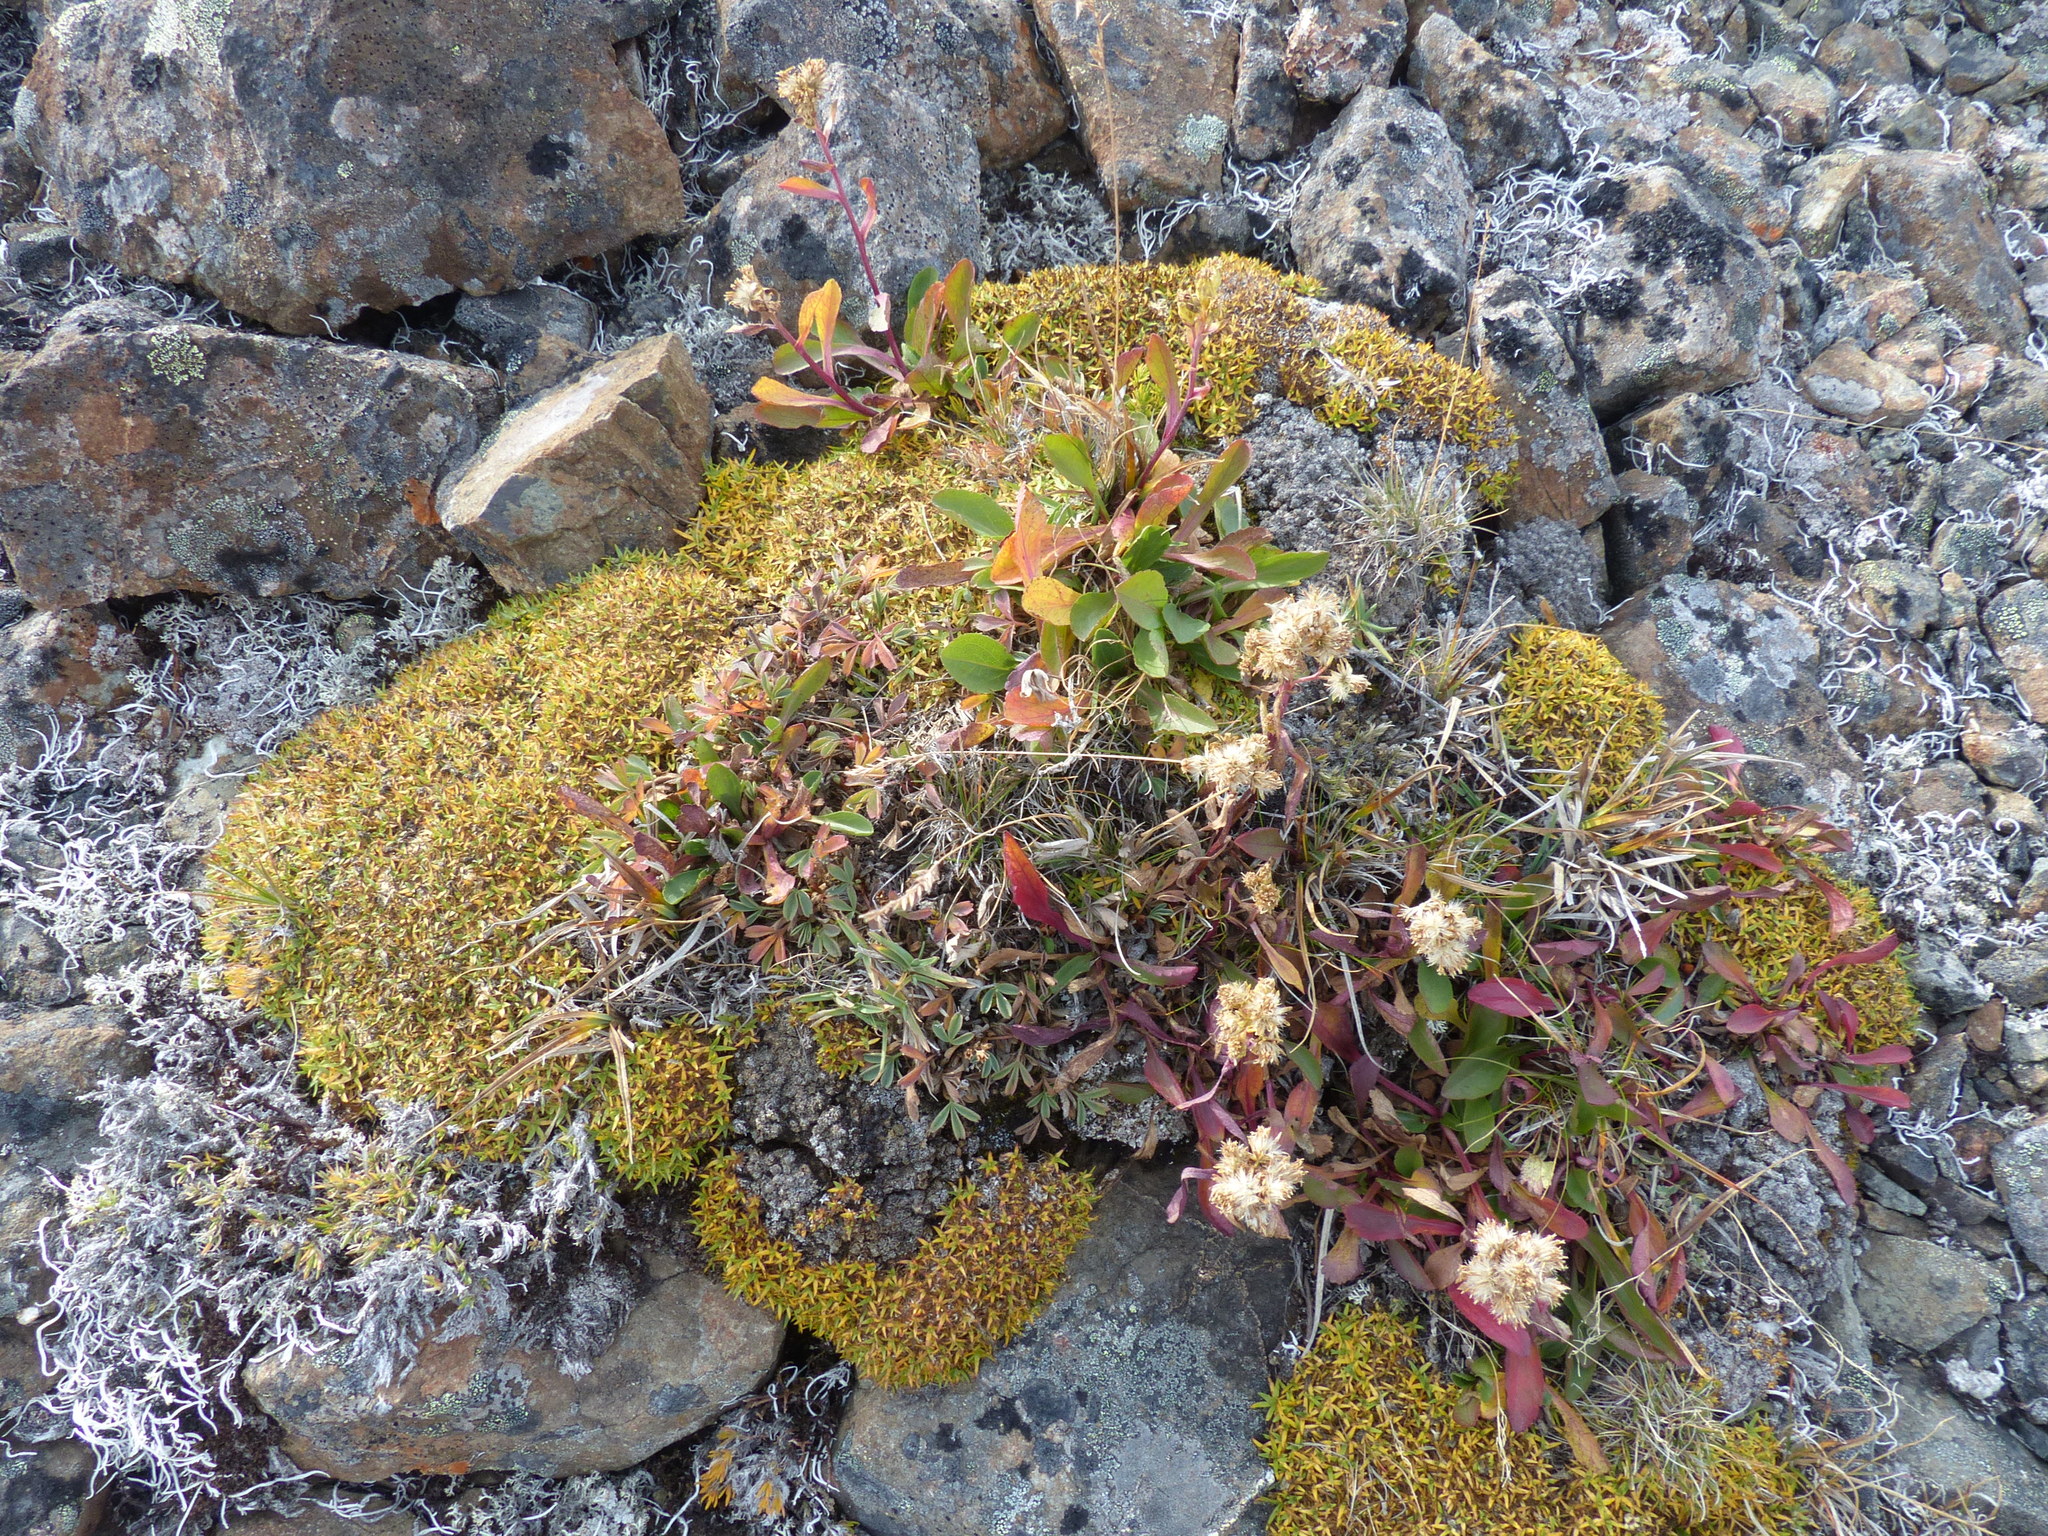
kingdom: Plantae
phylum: Tracheophyta
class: Magnoliopsida
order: Caryophyllales
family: Caryophyllaceae
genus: Silene
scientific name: Silene acaulis
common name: Moss campion
